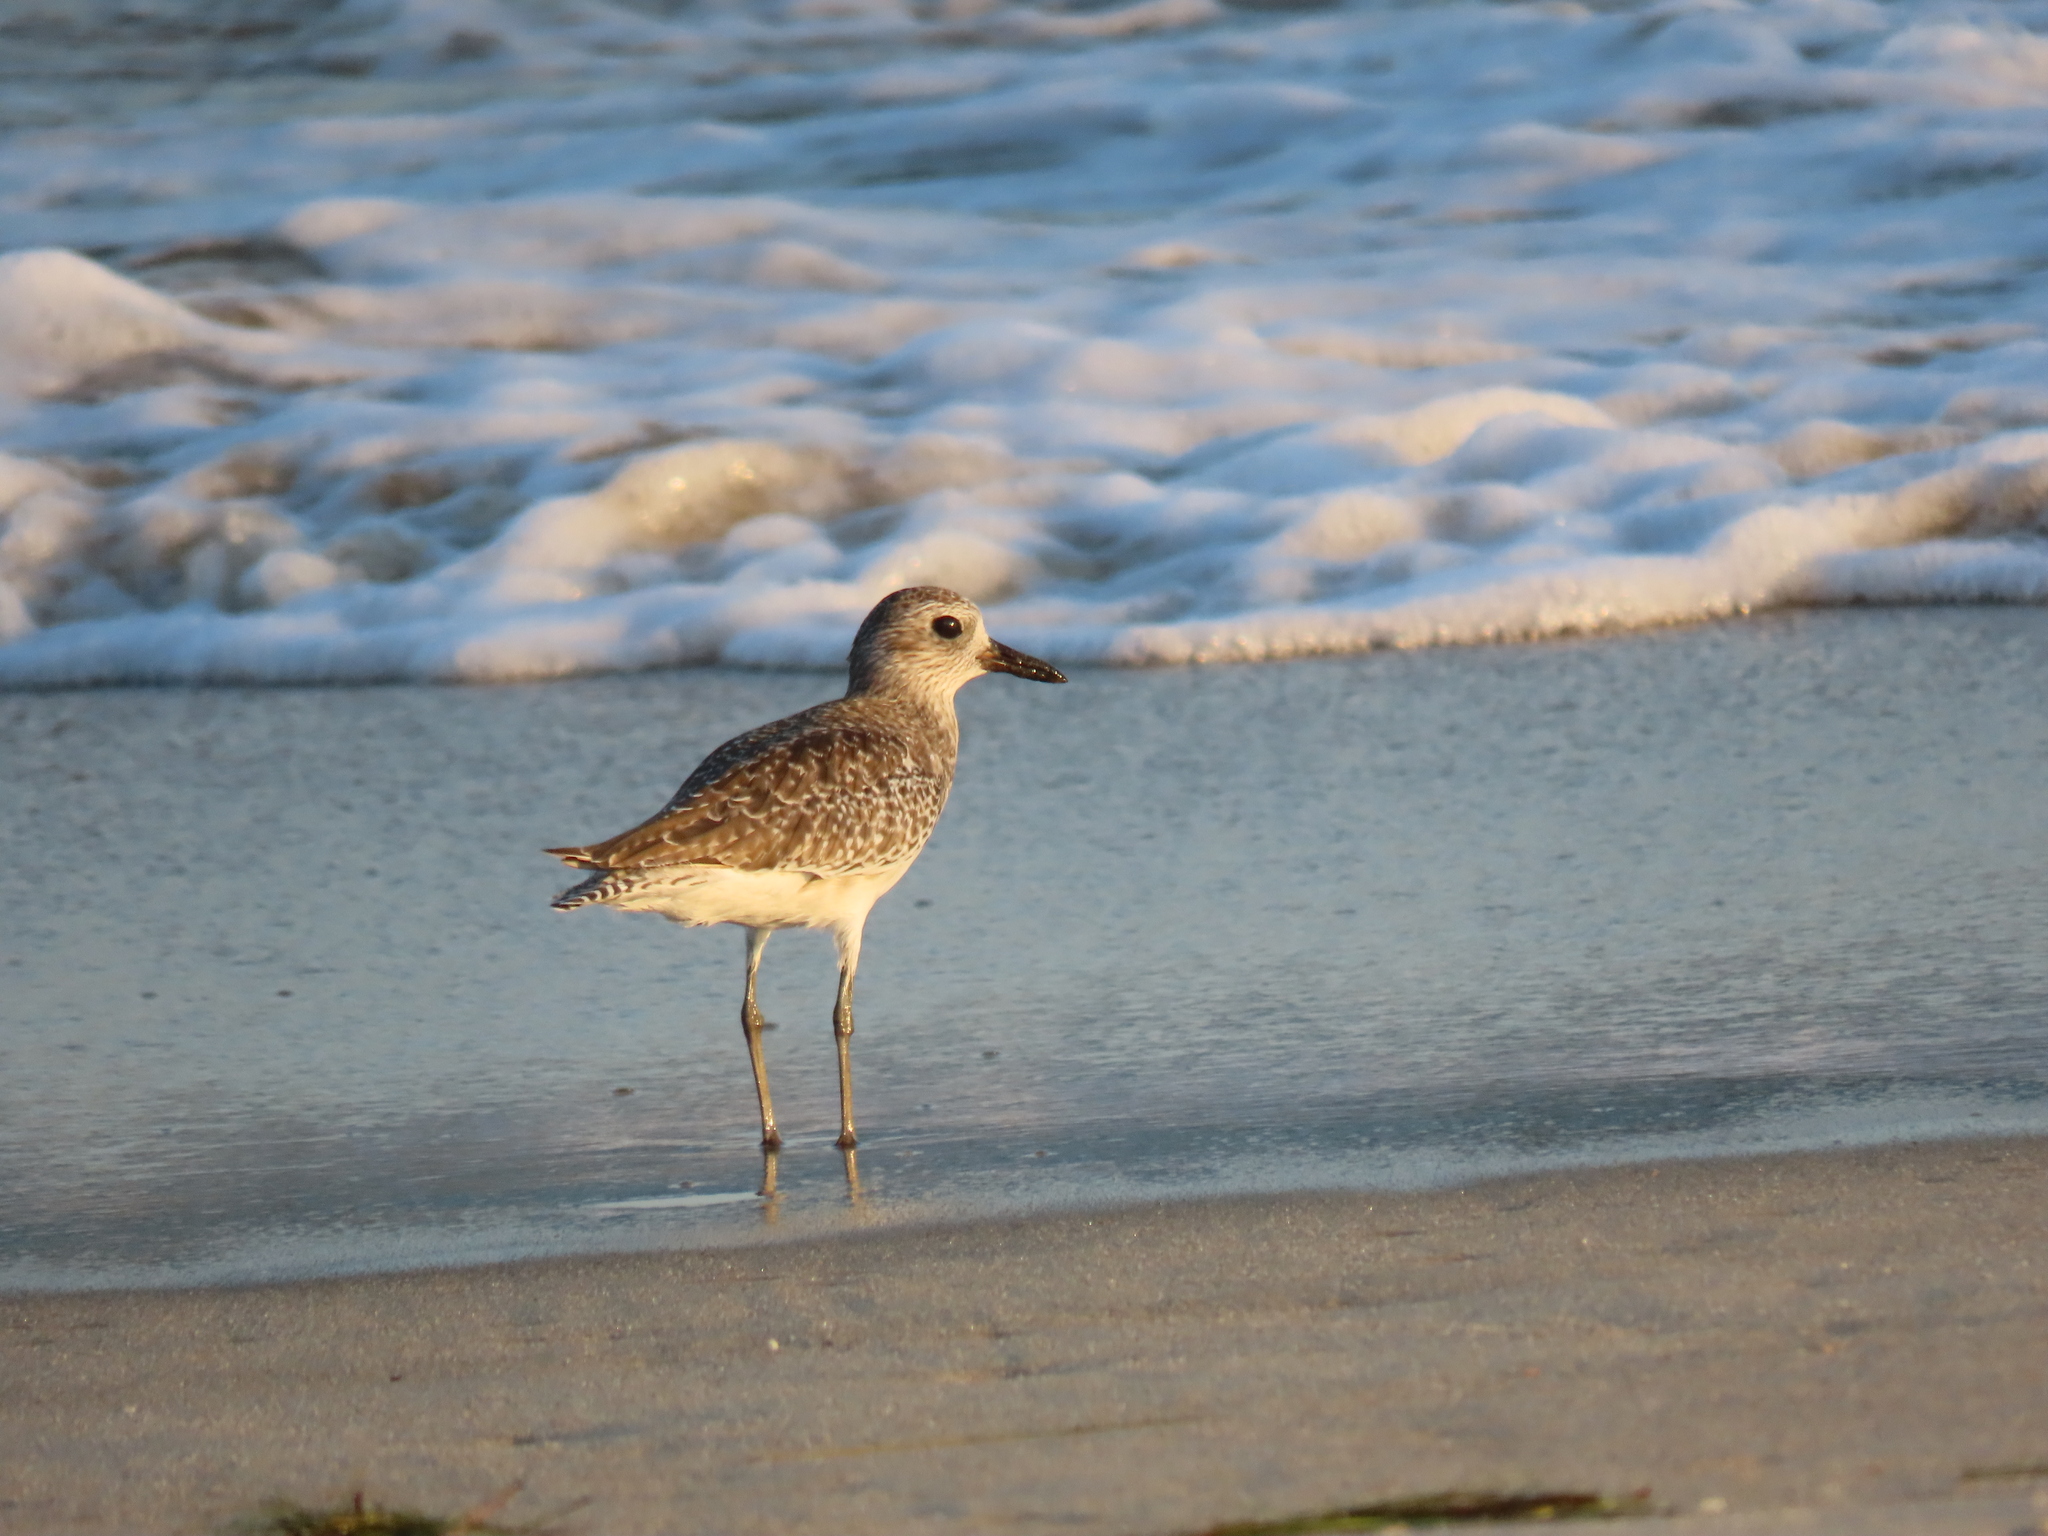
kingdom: Animalia
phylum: Chordata
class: Aves
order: Charadriiformes
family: Charadriidae
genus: Pluvialis
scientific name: Pluvialis squatarola
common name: Grey plover
